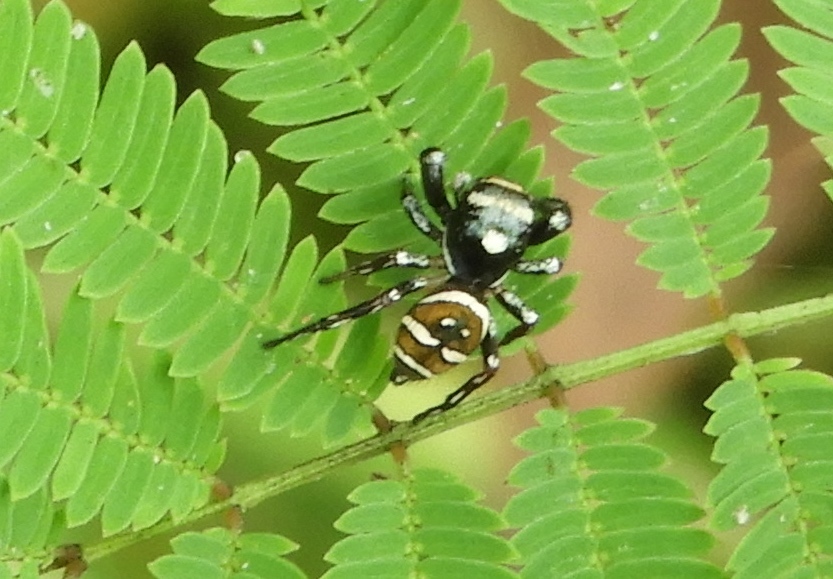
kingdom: Animalia
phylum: Arthropoda
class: Arachnida
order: Araneae
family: Salticidae
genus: Sassacus
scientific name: Sassacus
